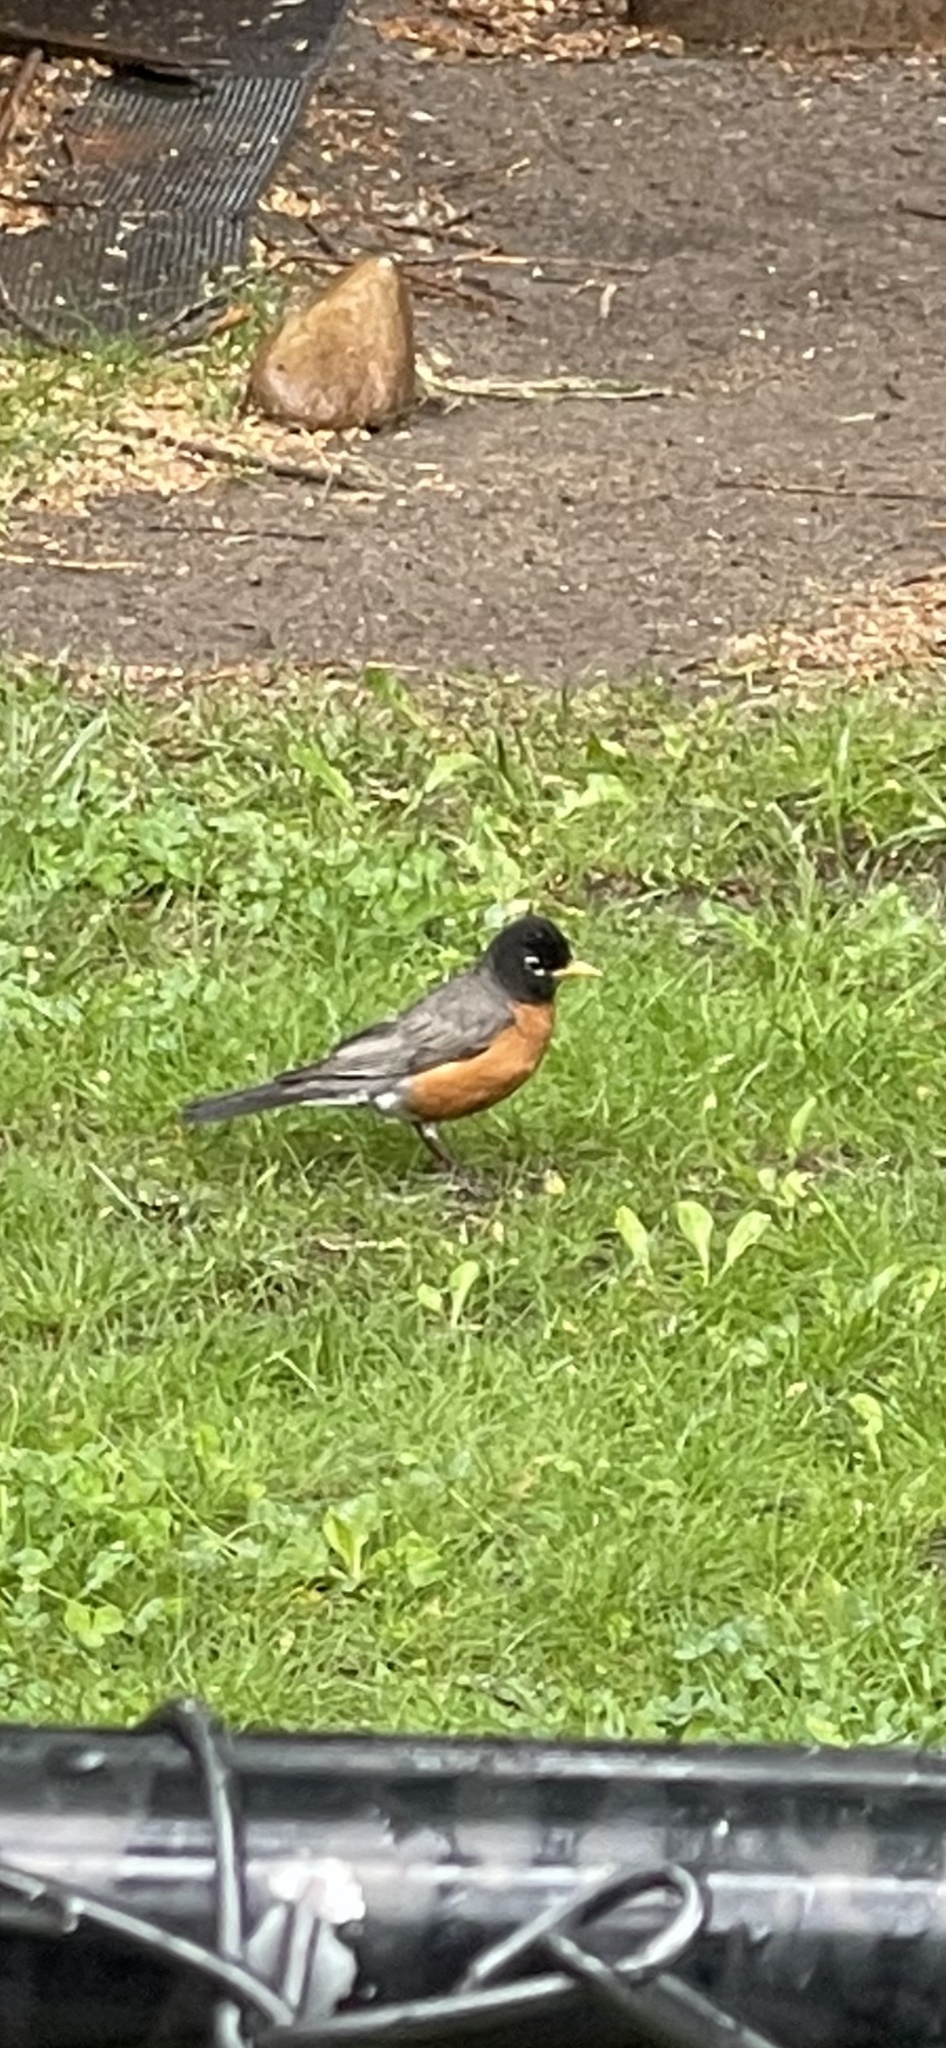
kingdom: Animalia
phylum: Chordata
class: Aves
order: Passeriformes
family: Turdidae
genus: Turdus
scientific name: Turdus migratorius
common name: American robin
